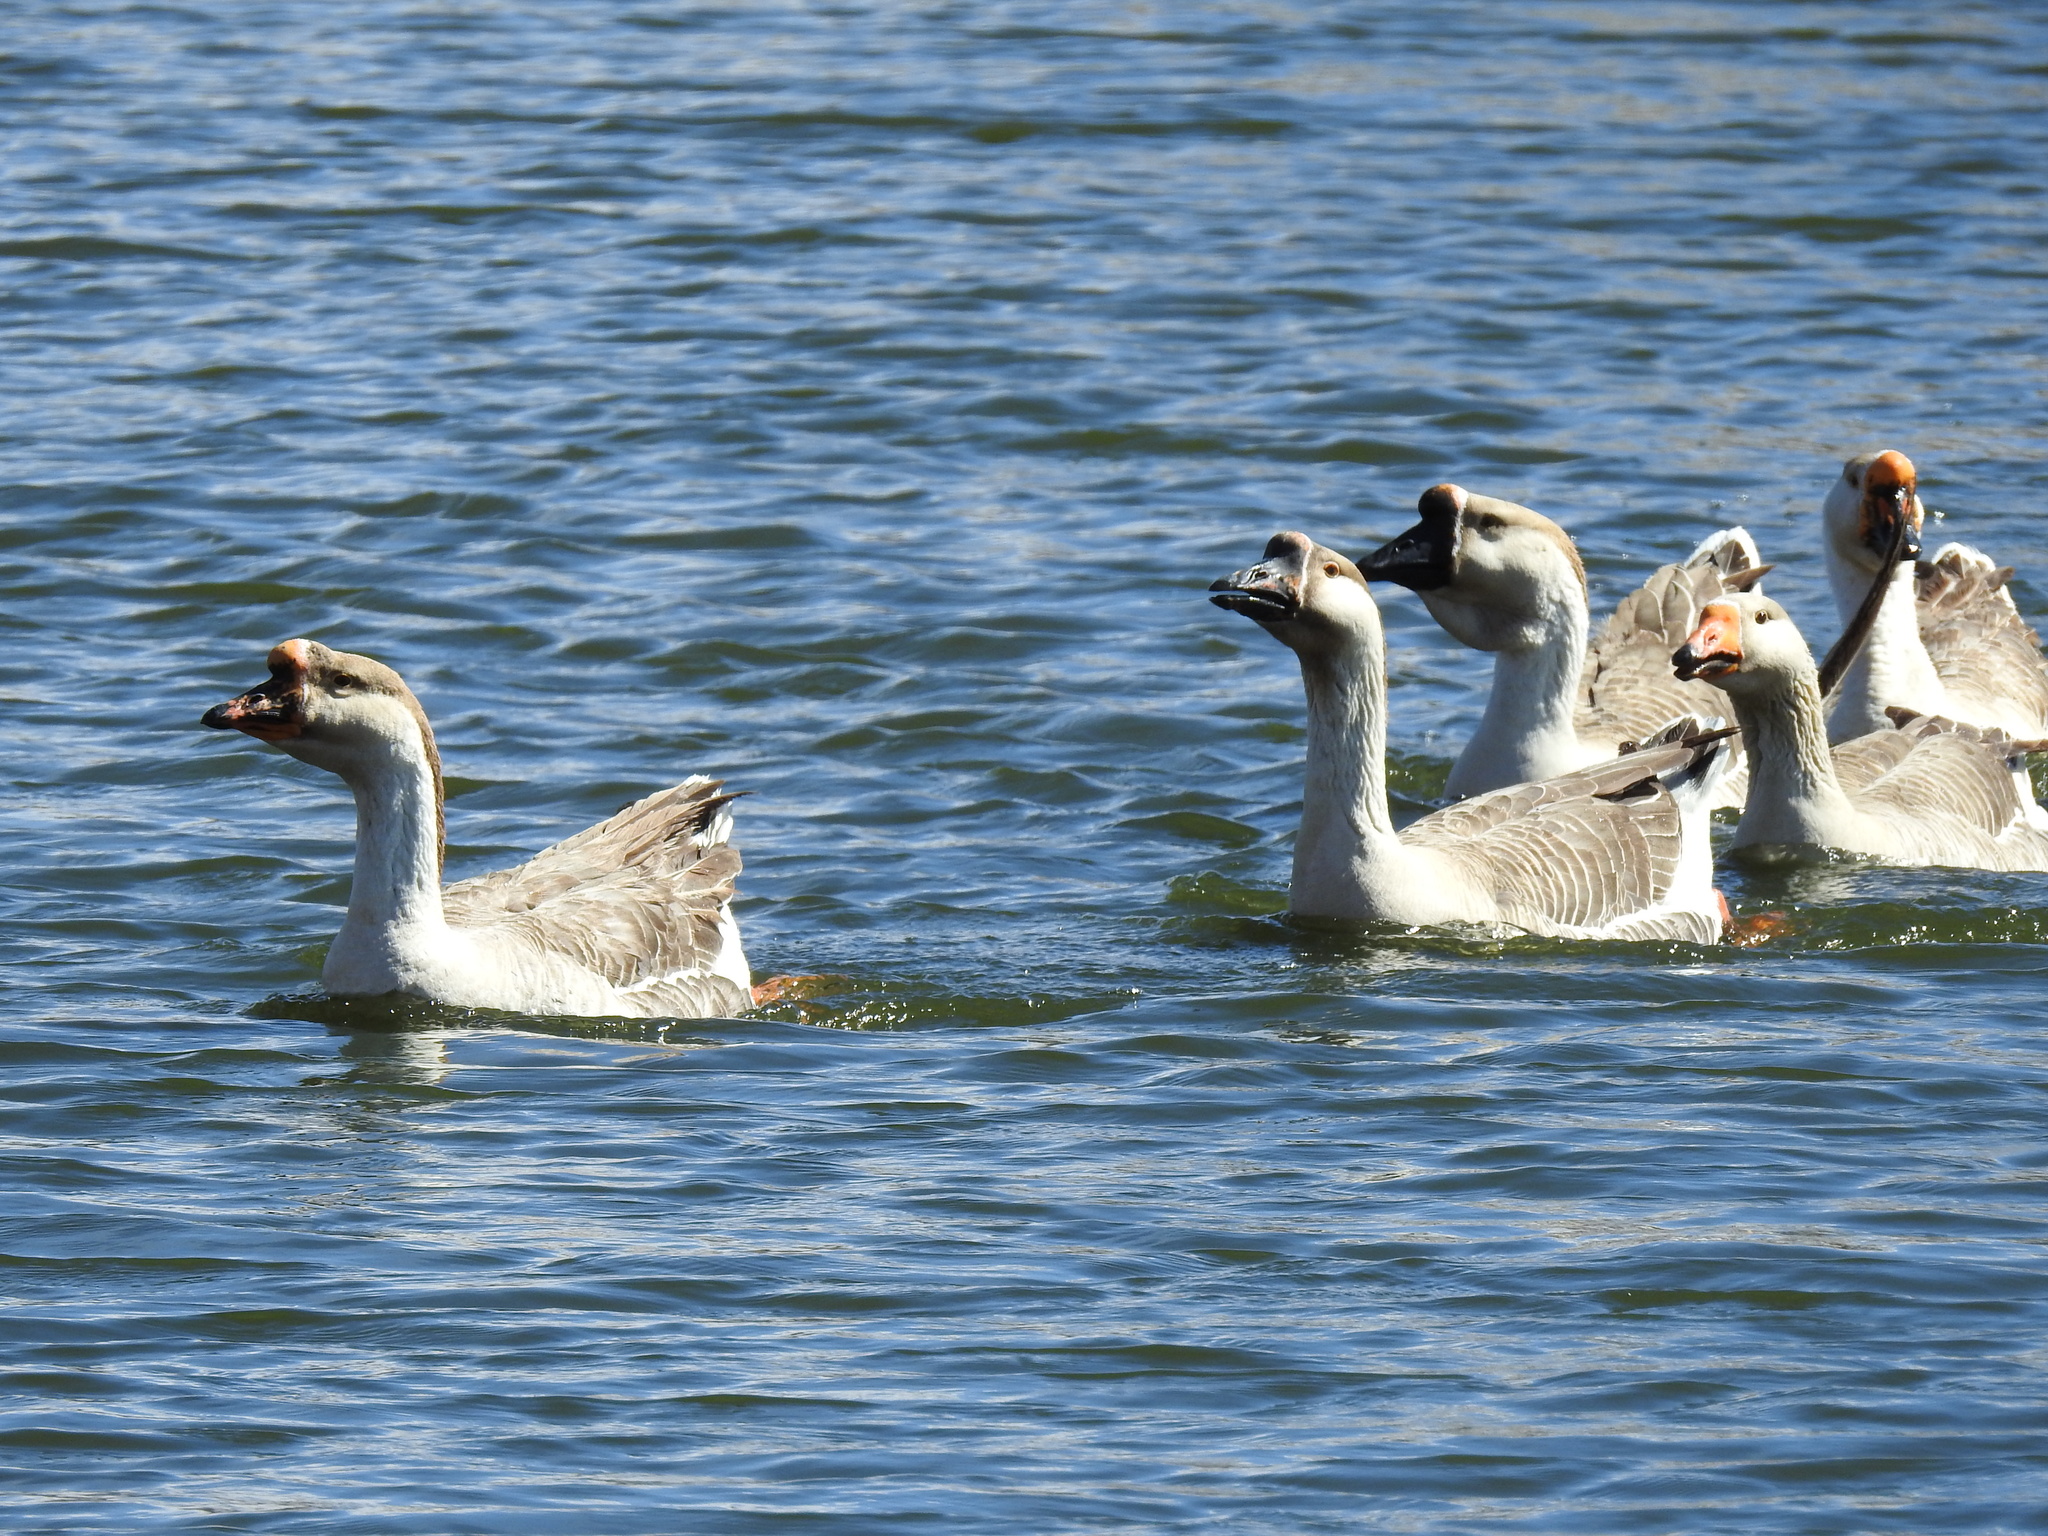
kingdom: Animalia
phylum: Chordata
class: Aves
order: Anseriformes
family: Anatidae
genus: Anser
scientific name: Anser cygnoides
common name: Swan goose
